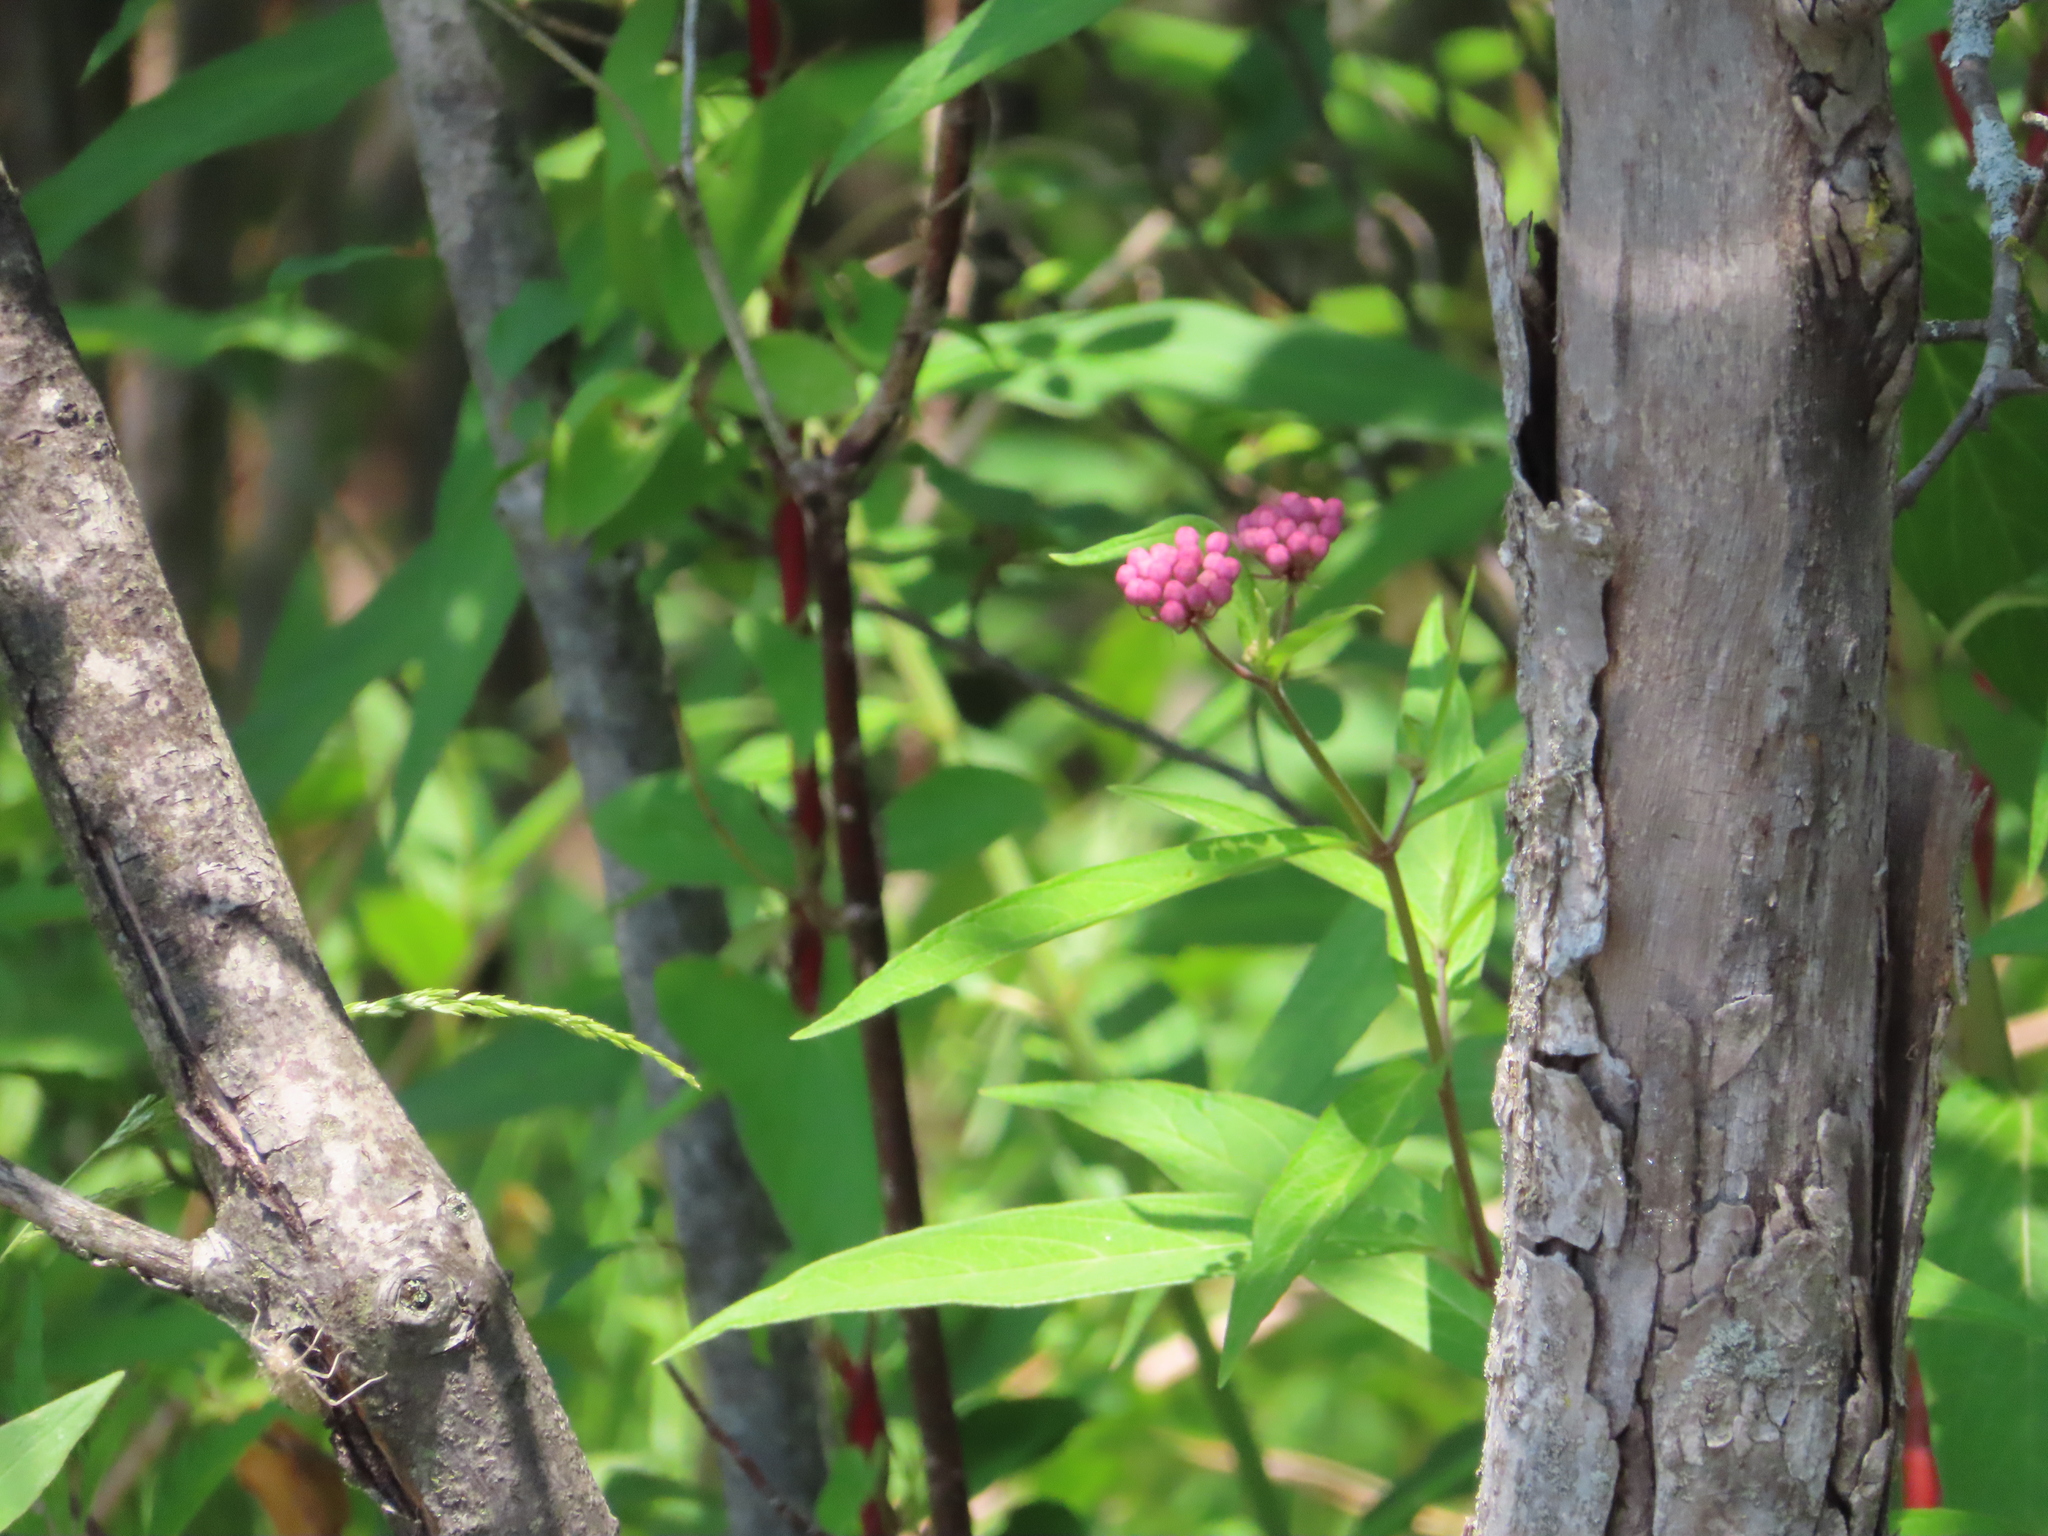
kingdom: Plantae
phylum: Tracheophyta
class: Magnoliopsida
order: Gentianales
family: Apocynaceae
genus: Asclepias
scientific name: Asclepias incarnata
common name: Swamp milkweed
